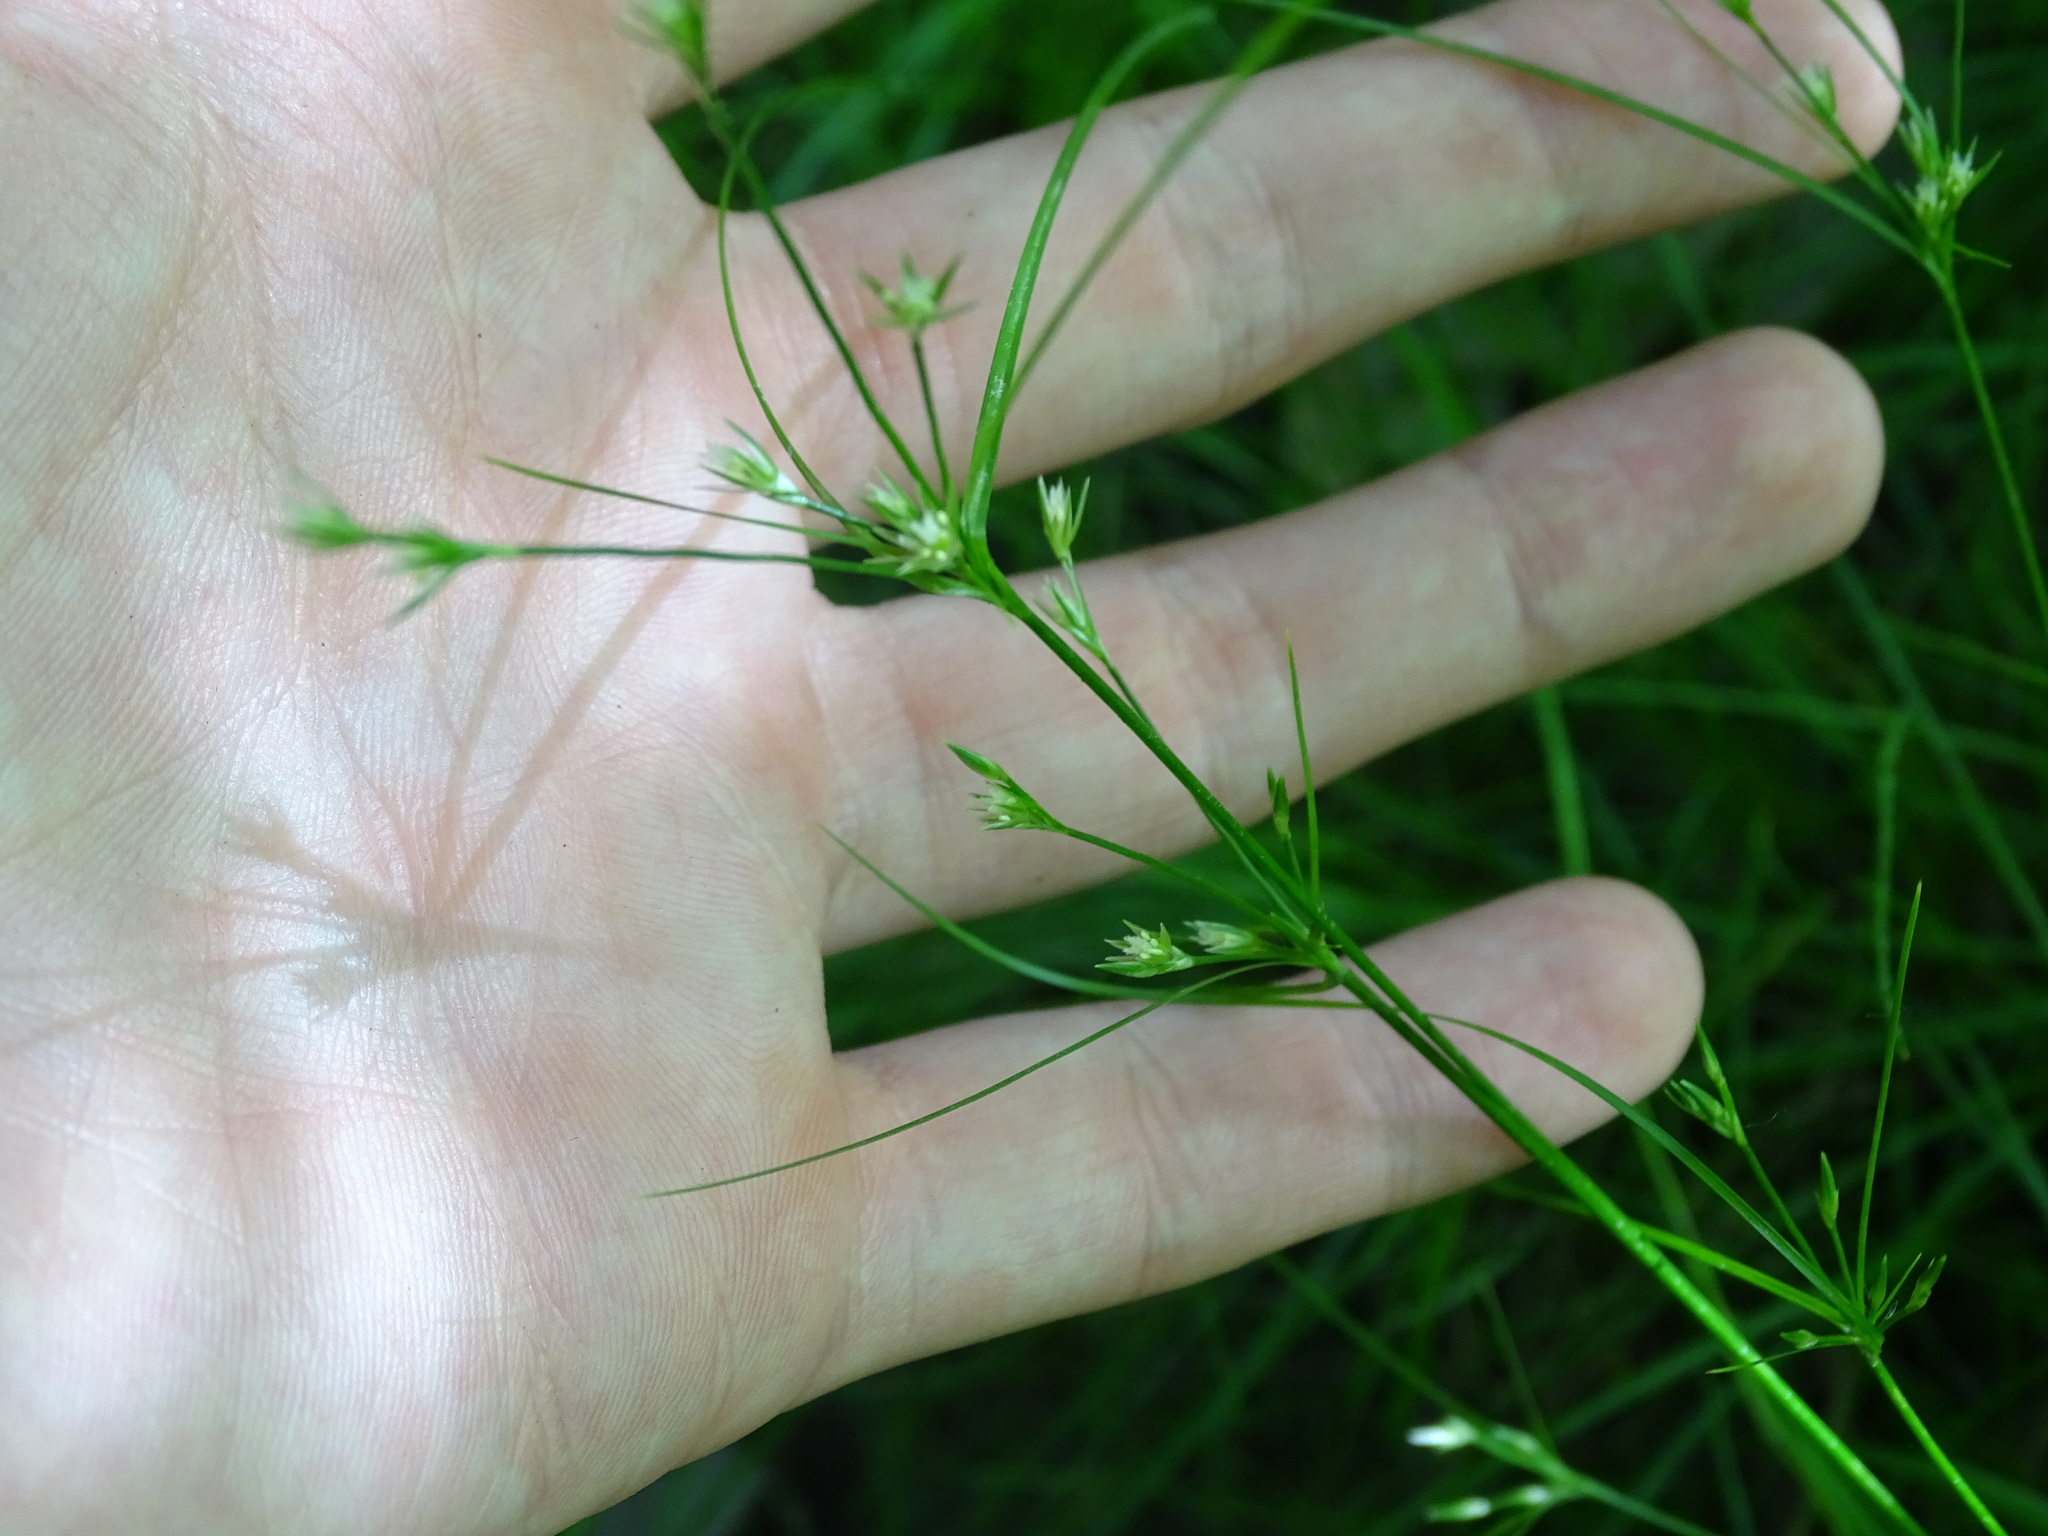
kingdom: Plantae
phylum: Tracheophyta
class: Liliopsida
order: Poales
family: Juncaceae
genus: Juncus
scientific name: Juncus tenuis
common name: Slender rush
